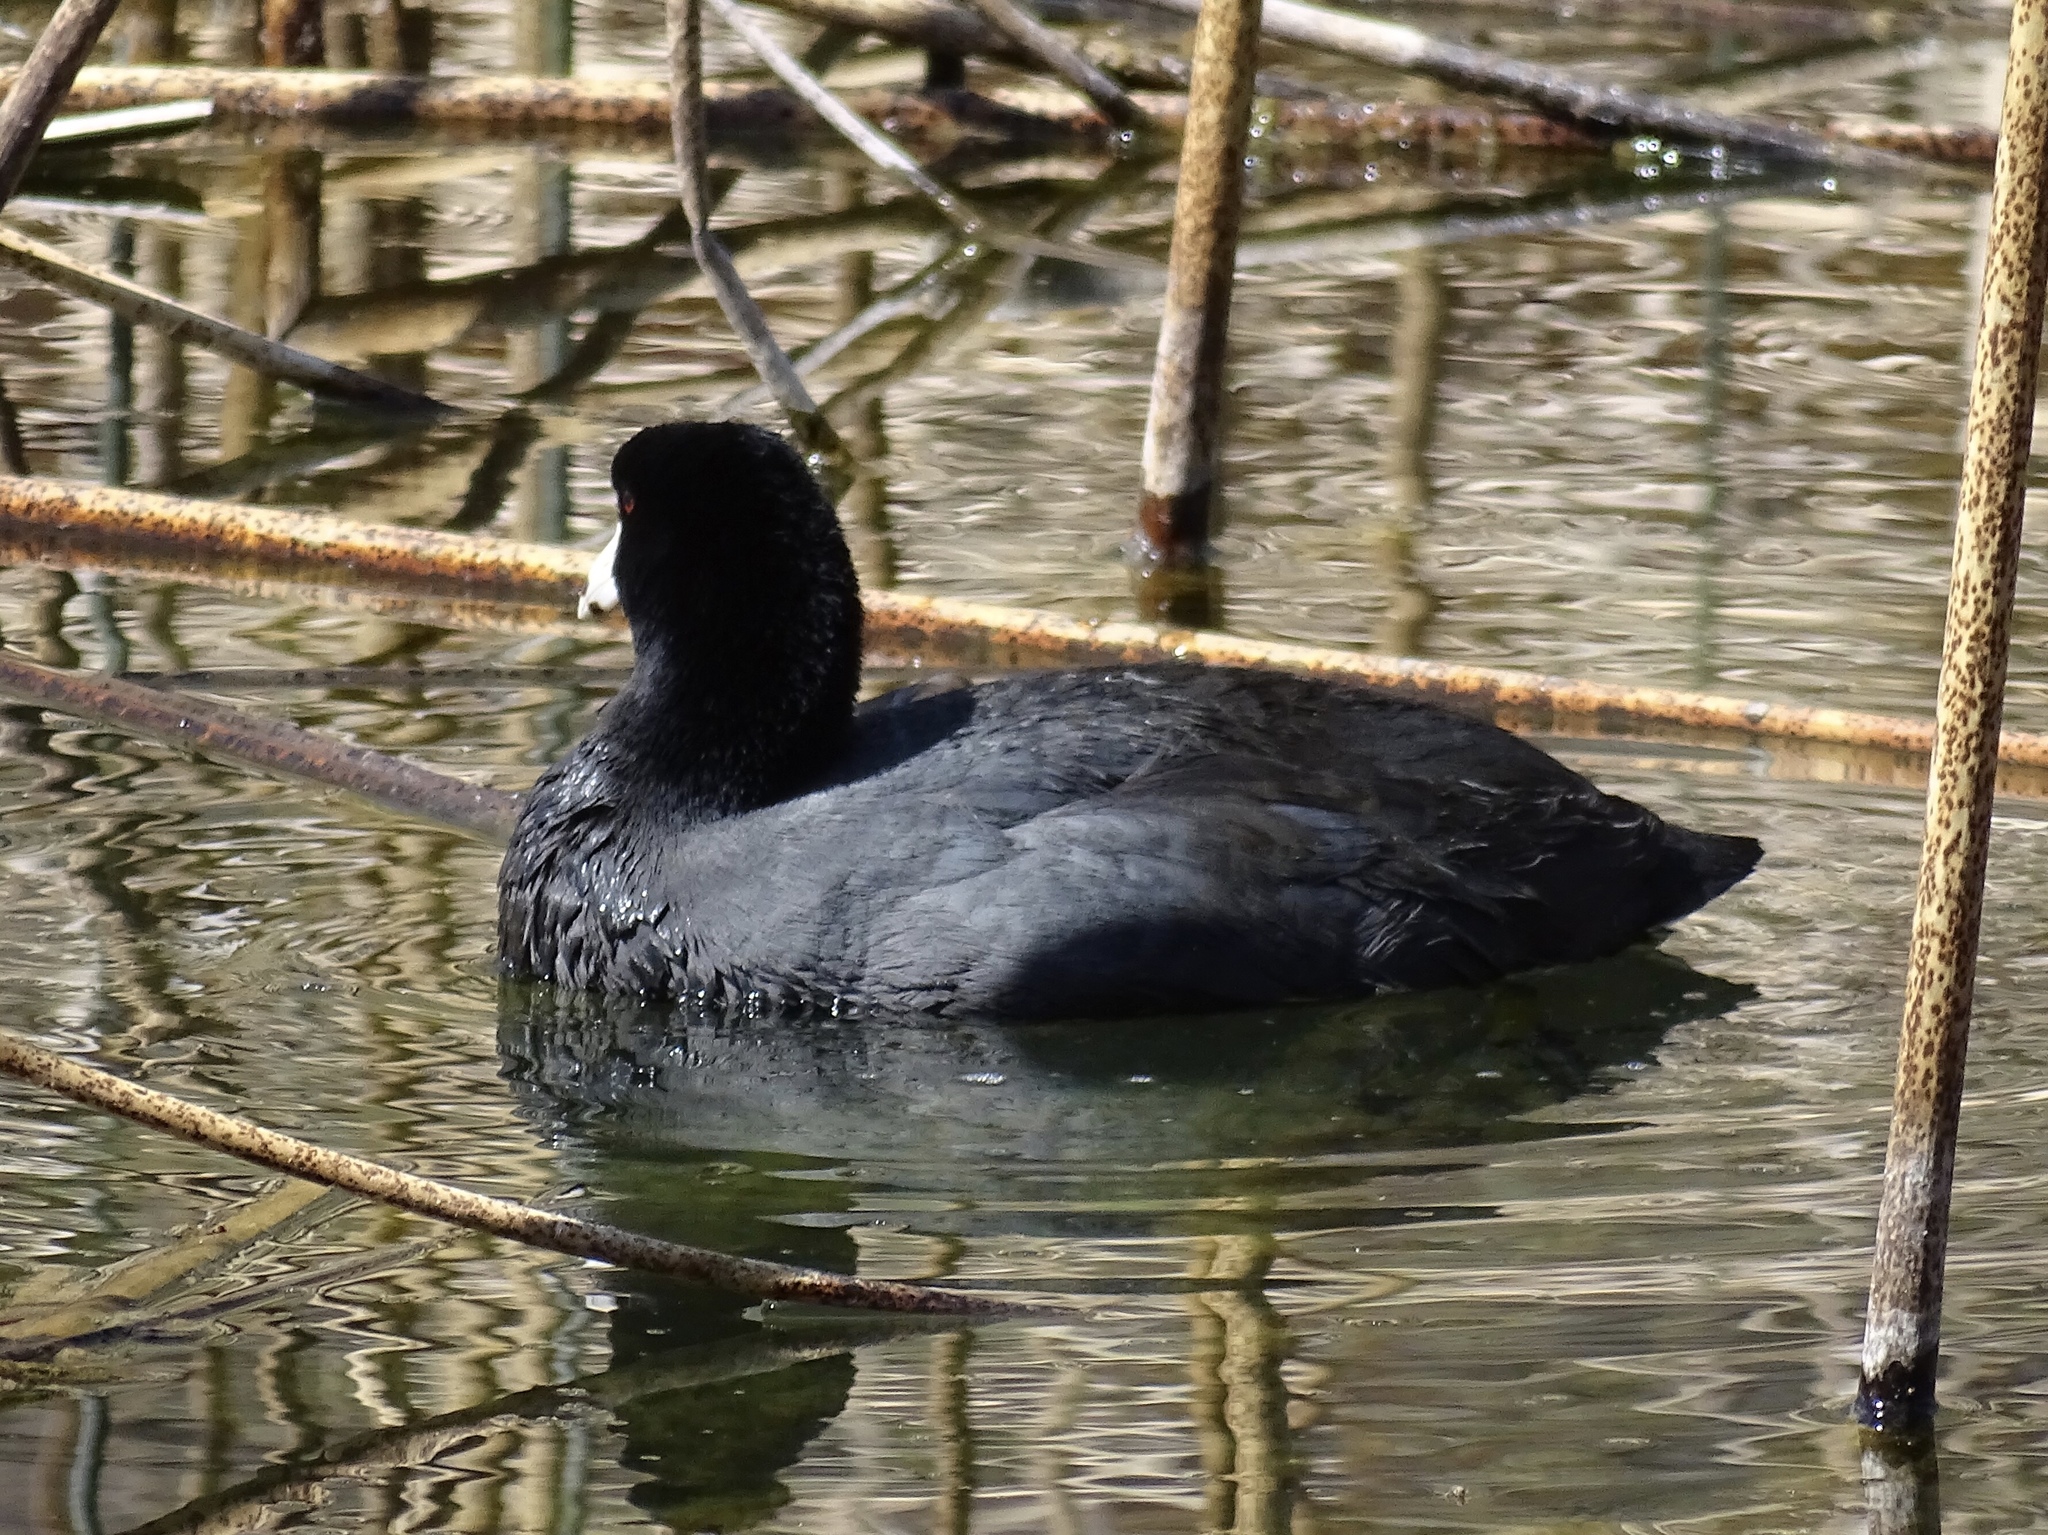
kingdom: Animalia
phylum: Chordata
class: Aves
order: Gruiformes
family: Rallidae
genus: Fulica
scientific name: Fulica americana
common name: American coot
